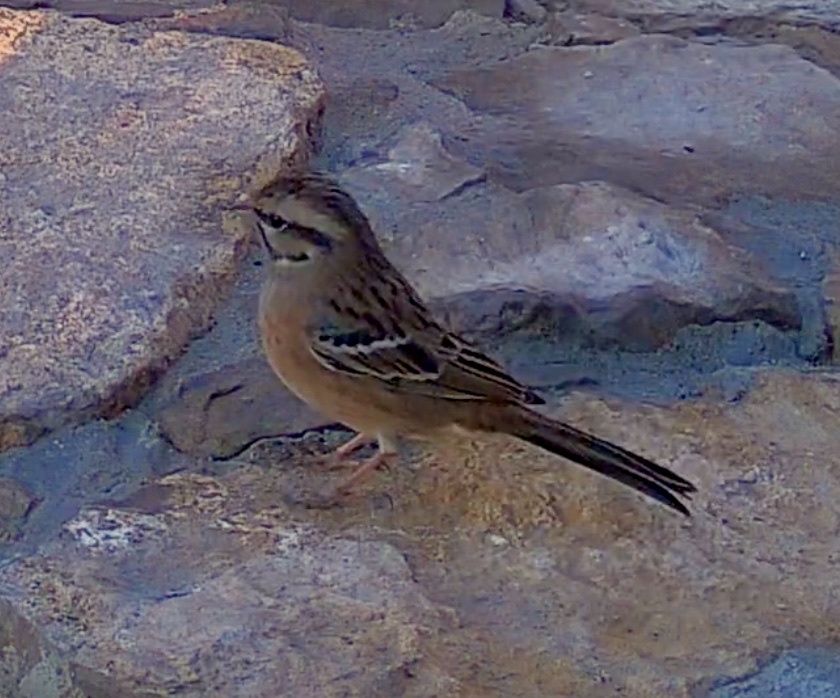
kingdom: Animalia
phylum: Chordata
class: Aves
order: Passeriformes
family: Emberizidae
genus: Emberiza
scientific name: Emberiza cia
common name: Rock bunting
